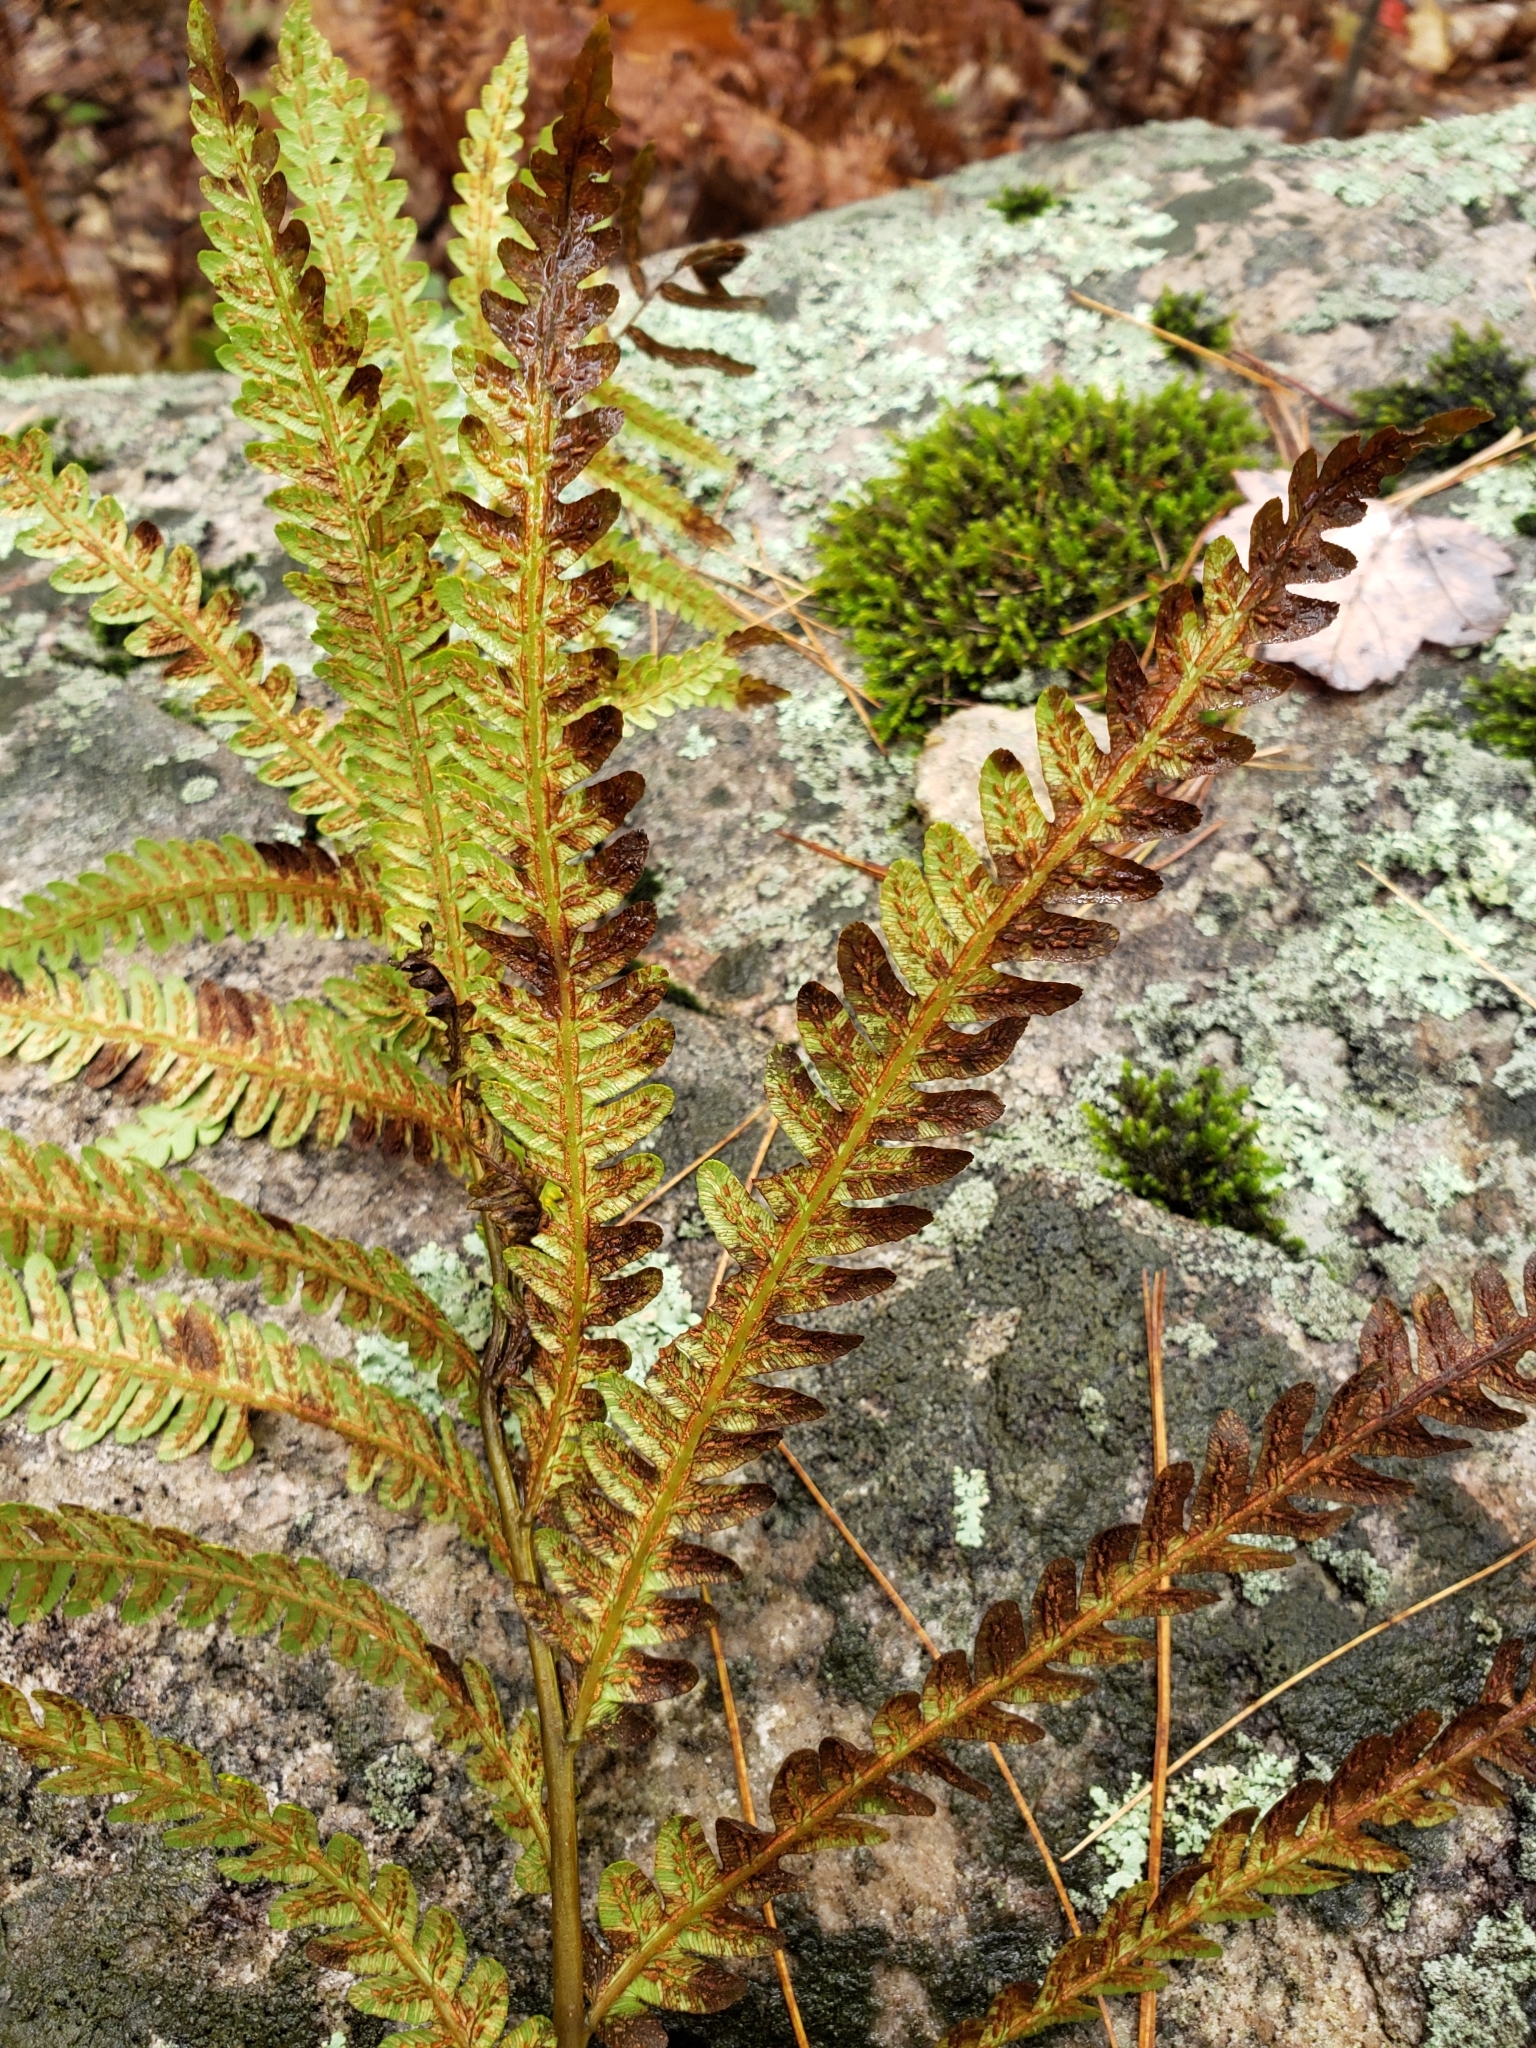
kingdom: Plantae
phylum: Tracheophyta
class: Polypodiopsida
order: Polypodiales
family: Blechnaceae
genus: Anchistea
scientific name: Anchistea virginica
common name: Virginia chain fern
